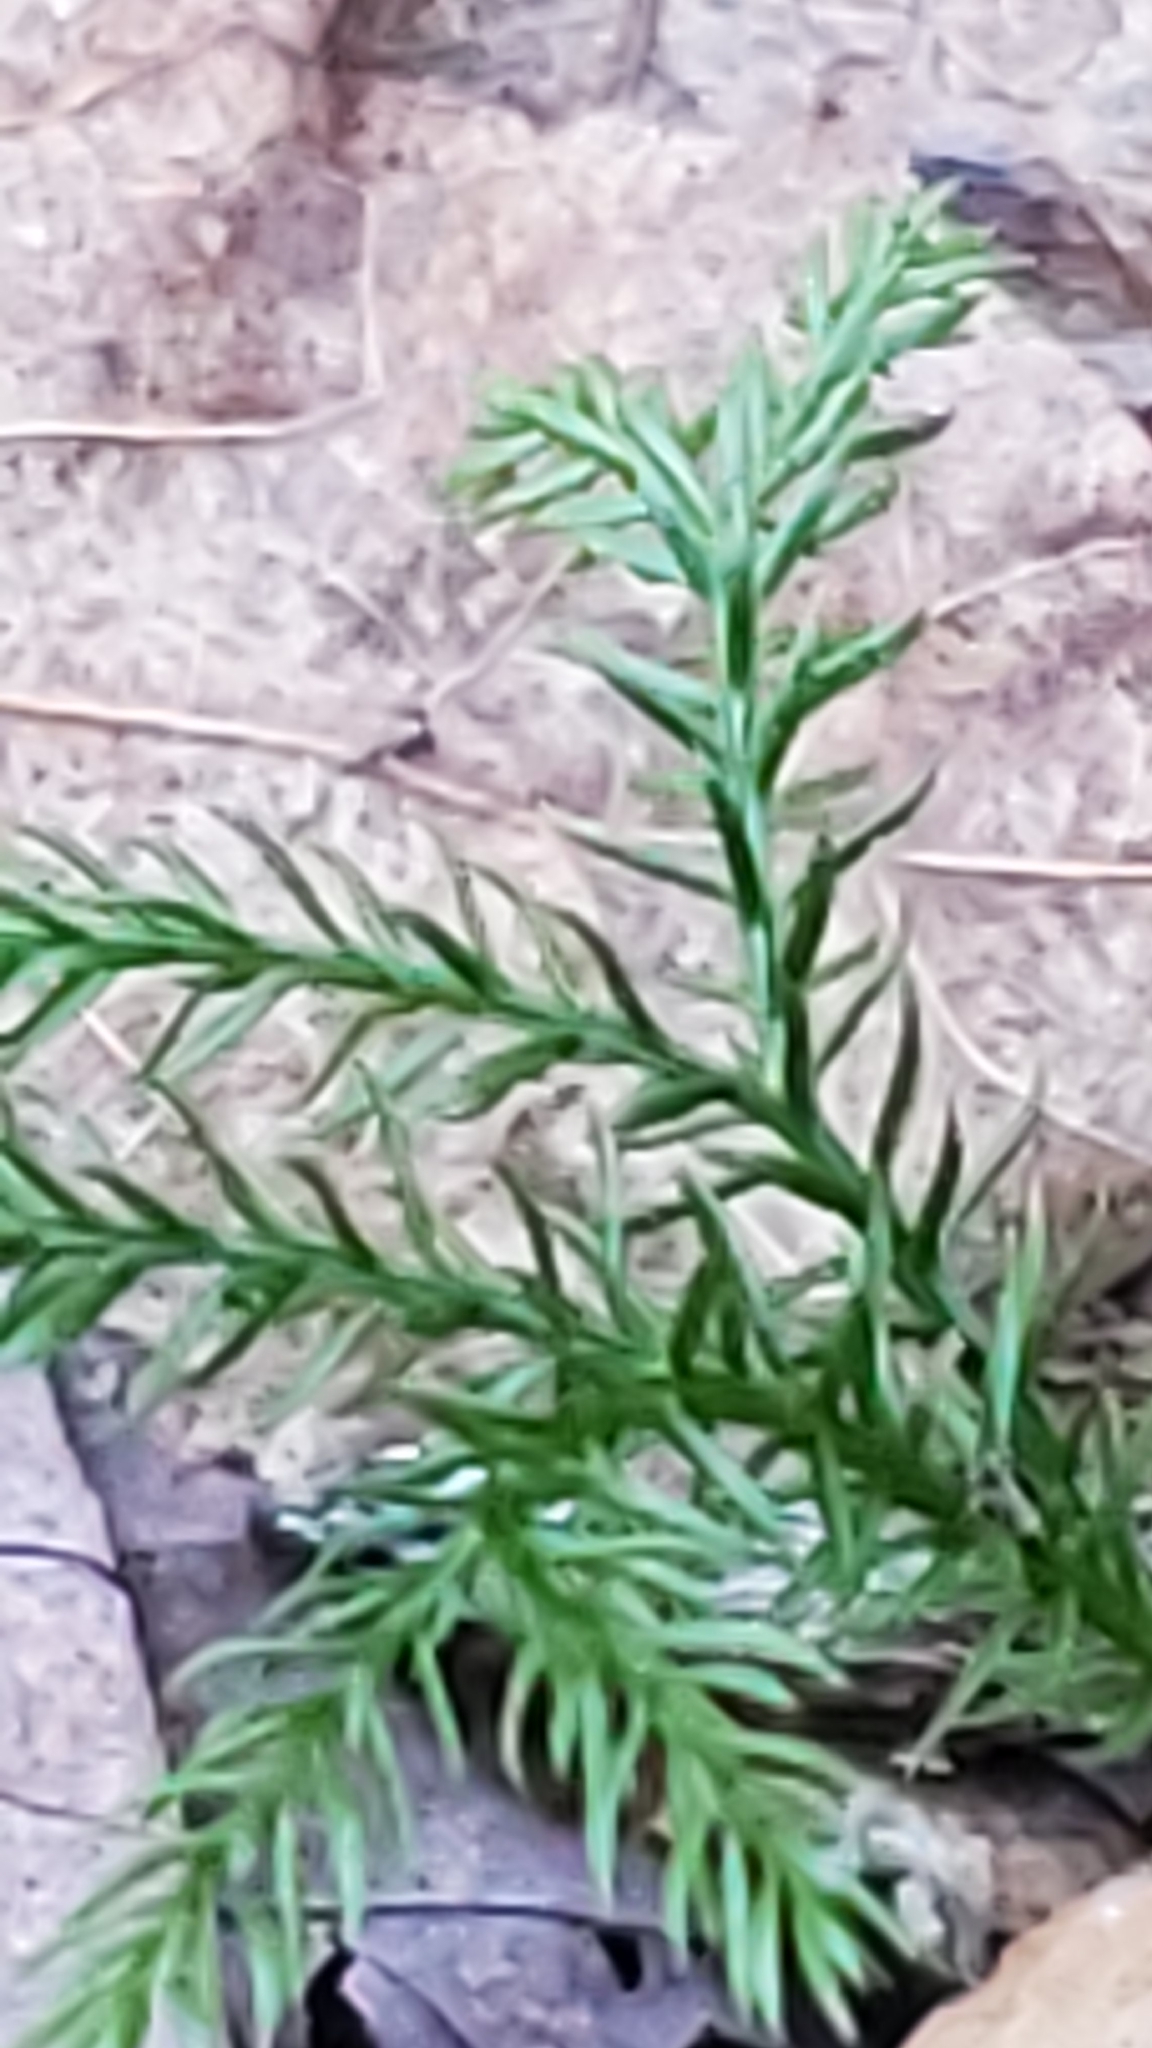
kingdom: Plantae
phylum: Tracheophyta
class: Lycopodiopsida
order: Lycopodiales
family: Lycopodiaceae
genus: Dendrolycopodium
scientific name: Dendrolycopodium dendroideum
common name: Northern tree-clubmoss
